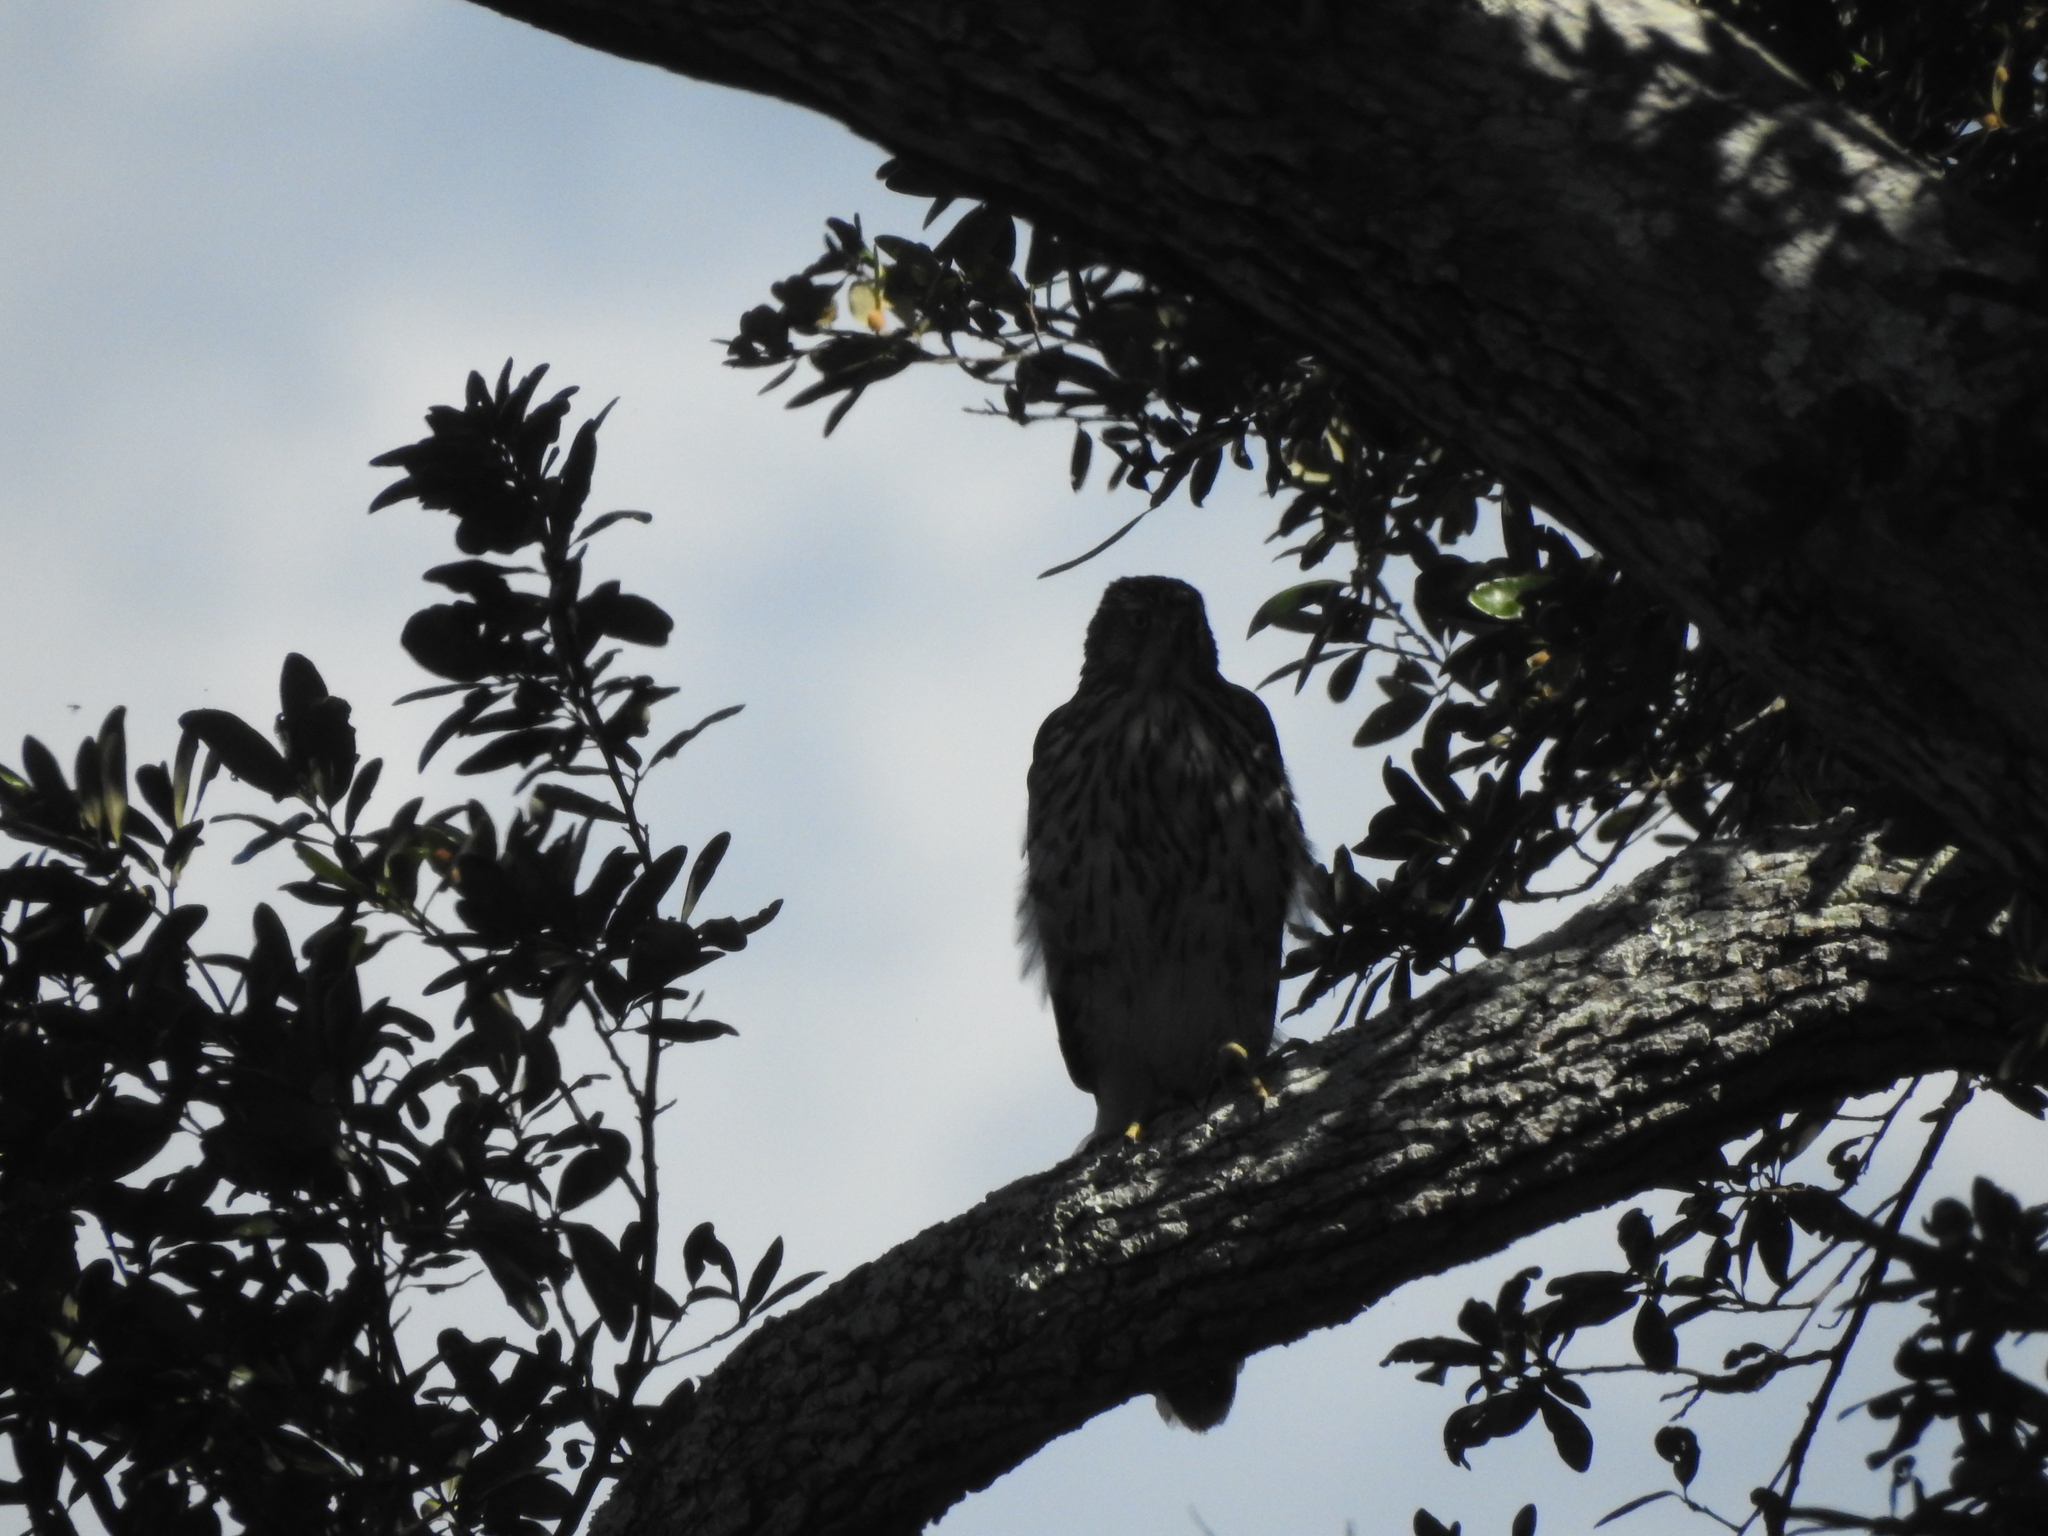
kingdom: Animalia
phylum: Chordata
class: Aves
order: Accipitriformes
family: Accipitridae
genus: Accipiter
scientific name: Accipiter cooperii
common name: Cooper's hawk
